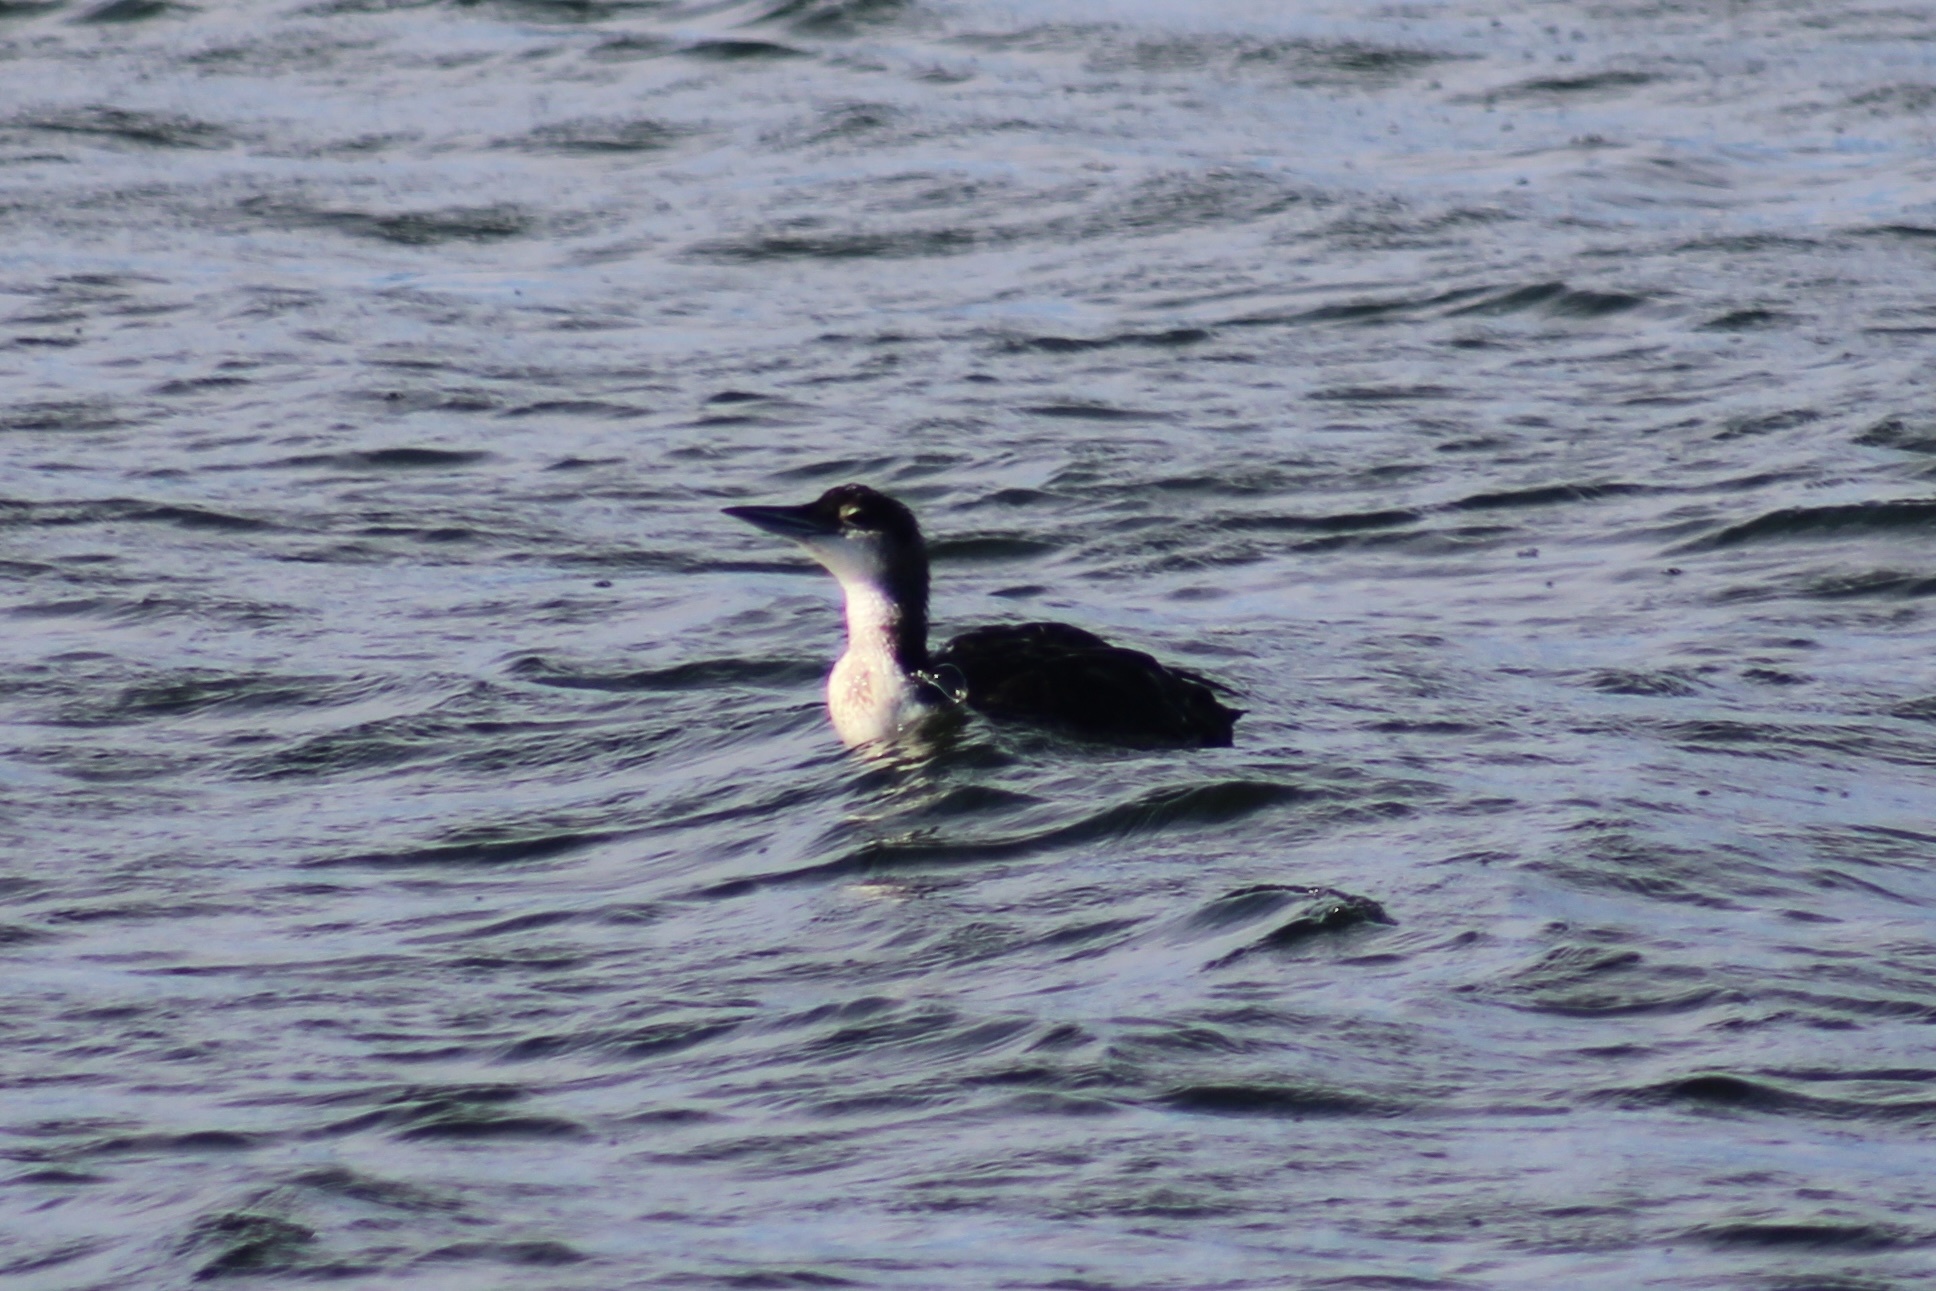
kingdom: Animalia
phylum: Chordata
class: Aves
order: Gaviiformes
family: Gaviidae
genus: Gavia
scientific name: Gavia immer
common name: Common loon
